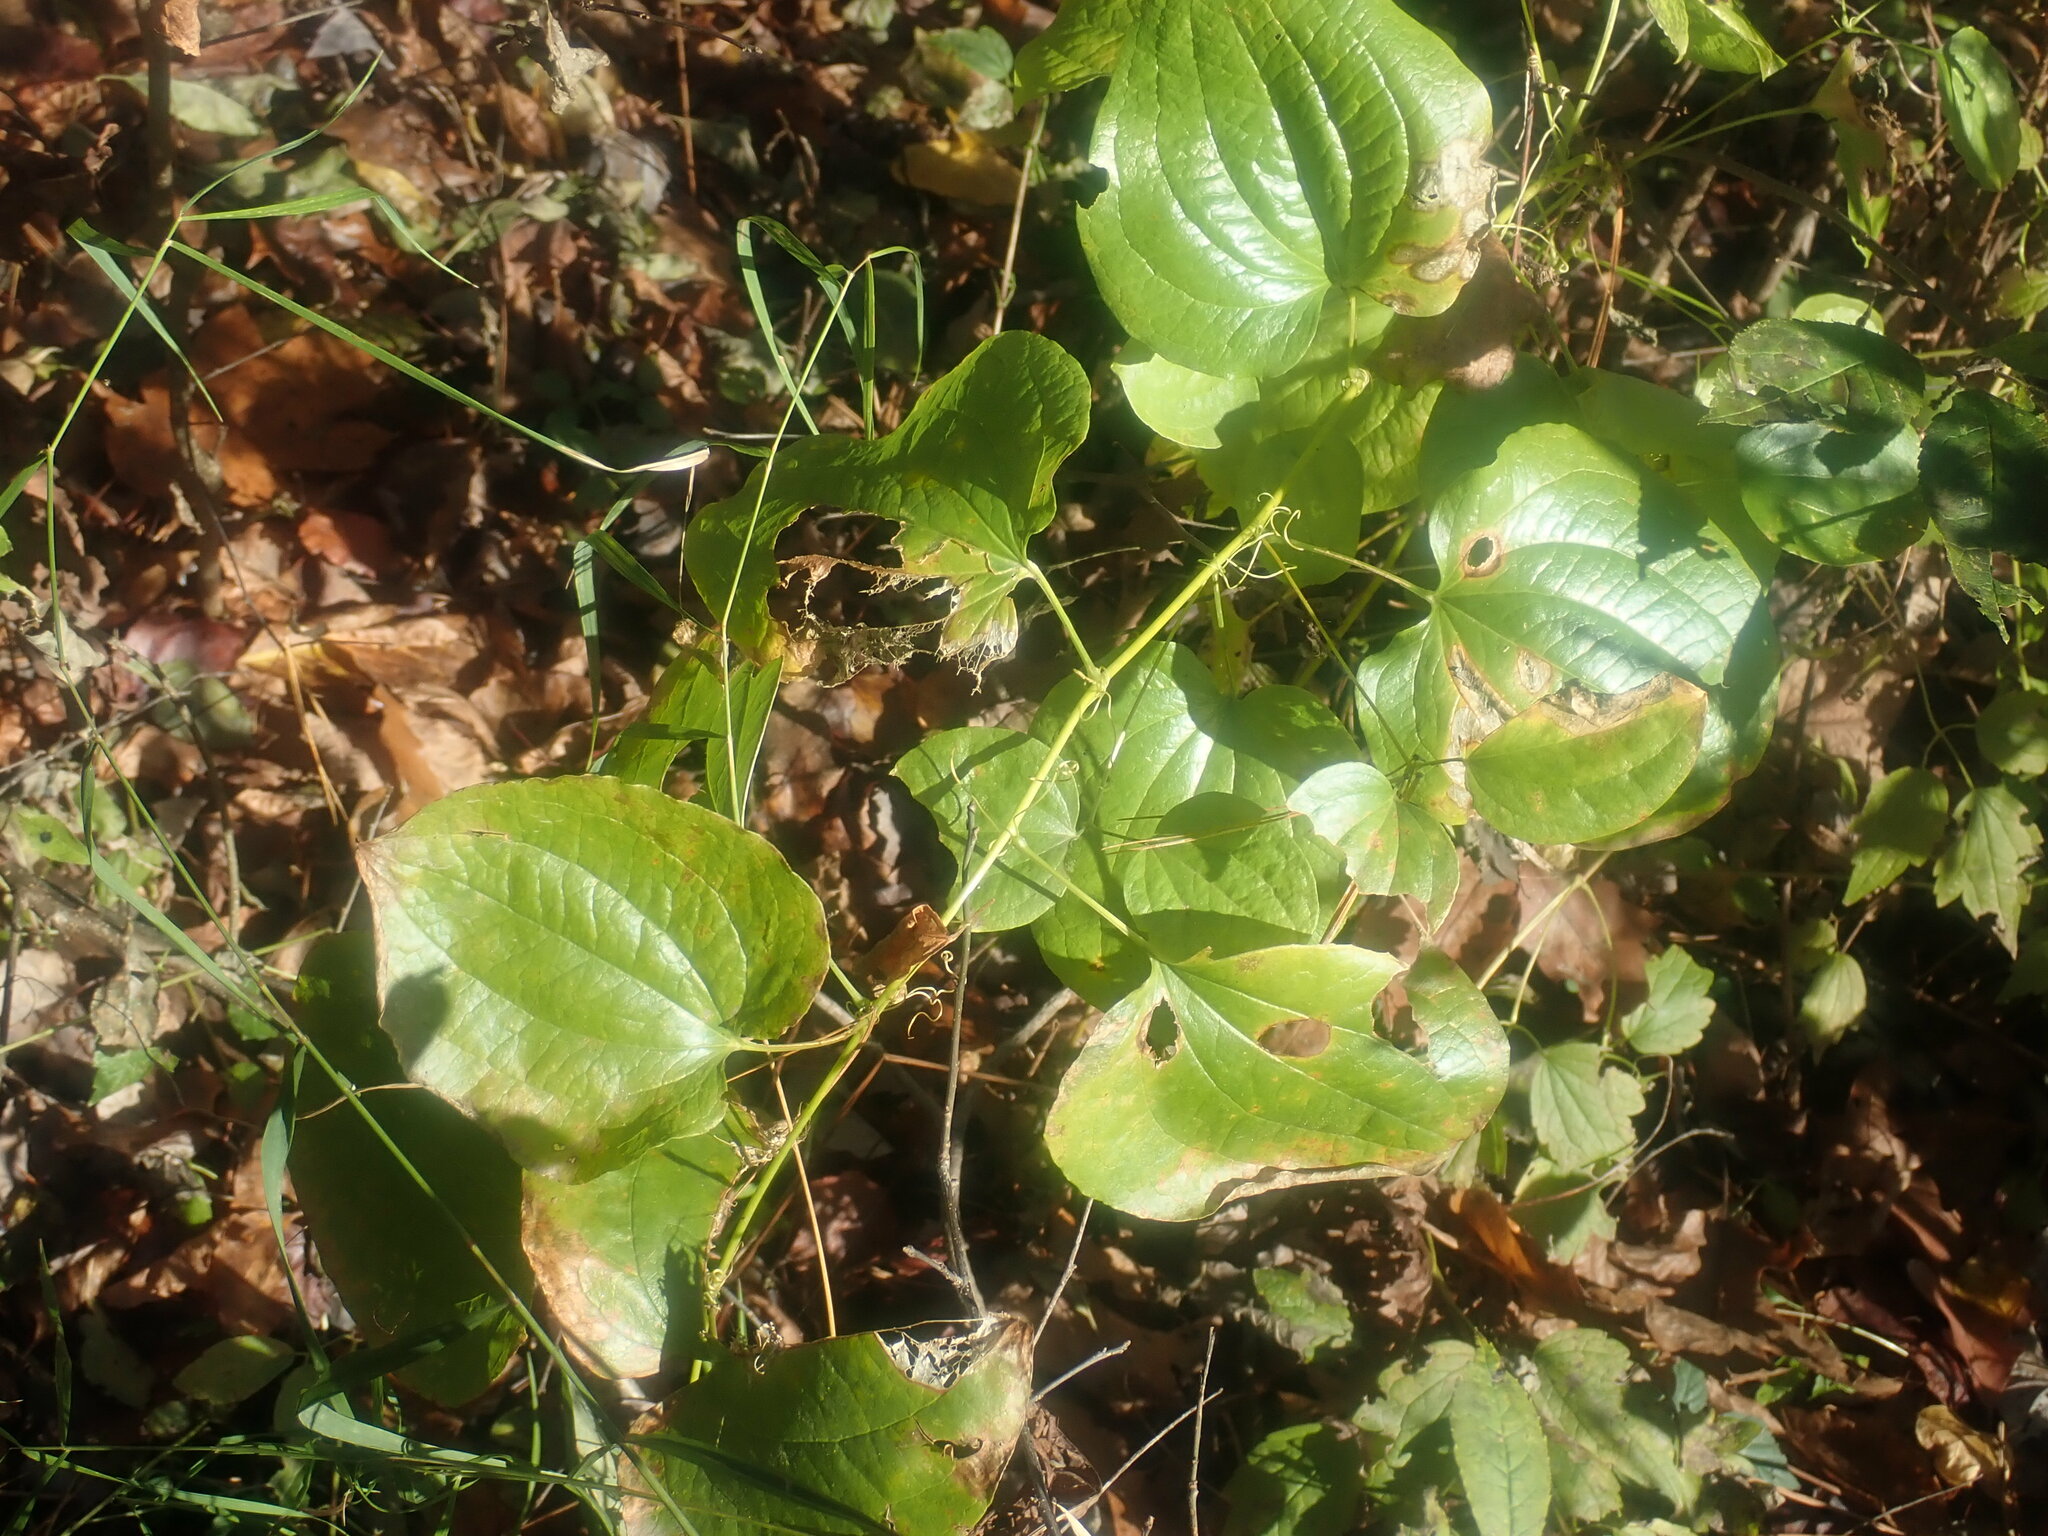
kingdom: Plantae
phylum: Tracheophyta
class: Liliopsida
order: Liliales
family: Smilacaceae
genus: Smilax
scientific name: Smilax herbacea
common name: Jacob's-ladder
